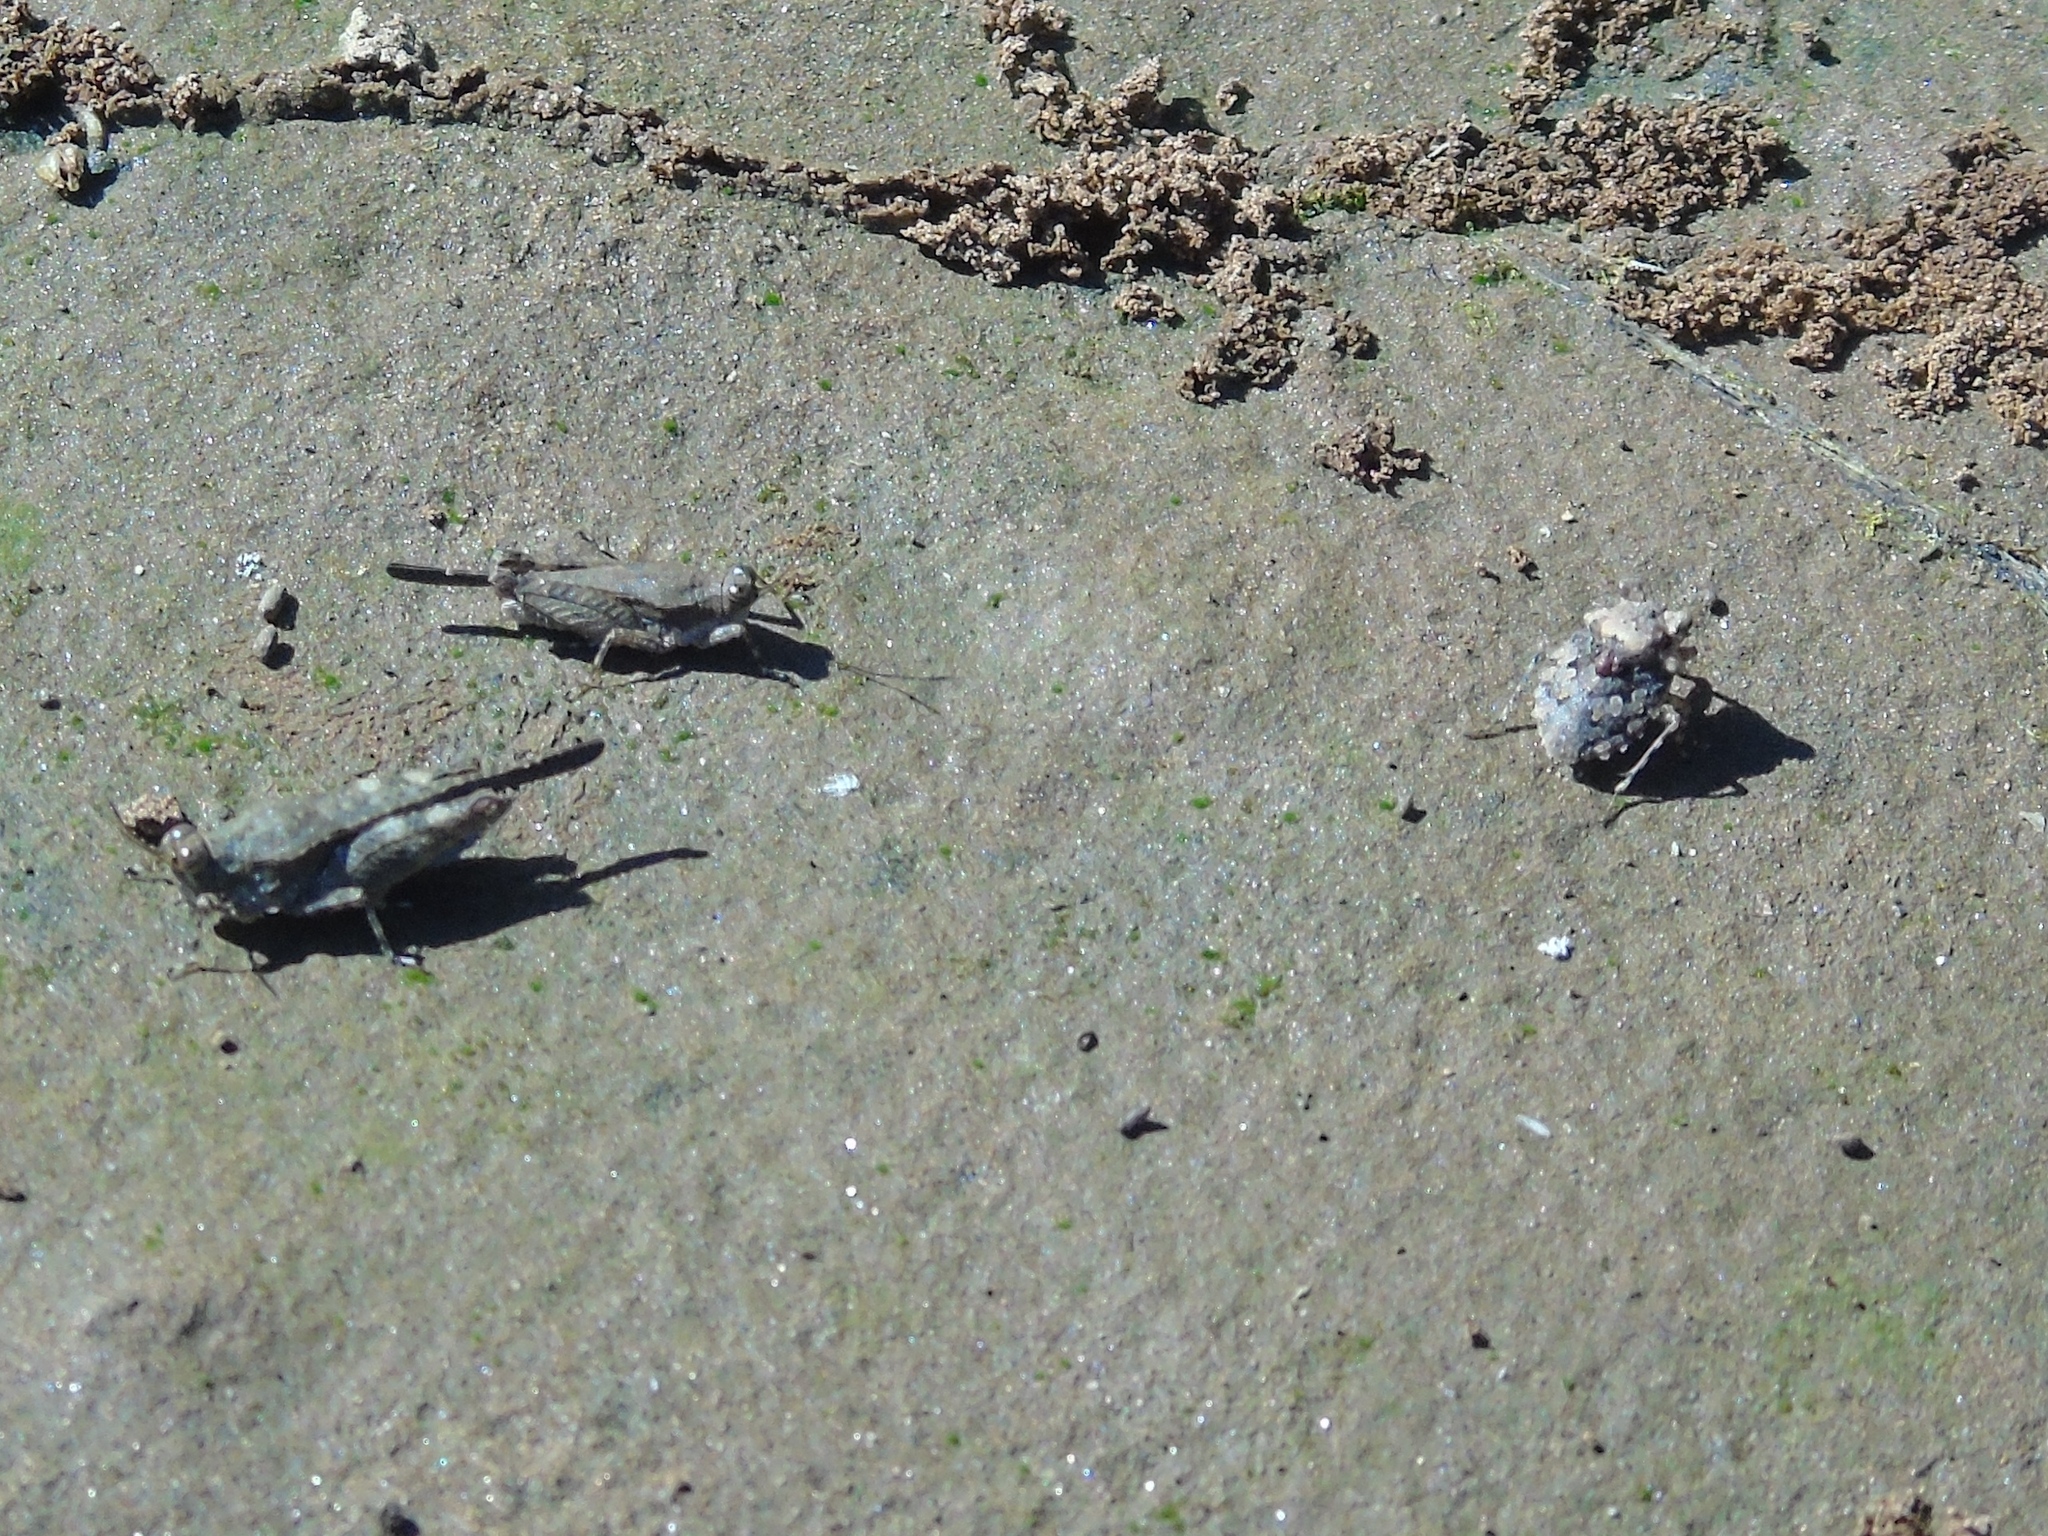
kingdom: Animalia
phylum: Arthropoda
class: Insecta
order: Orthoptera
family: Tetrigidae
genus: Paratettix
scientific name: Paratettix aztecus
